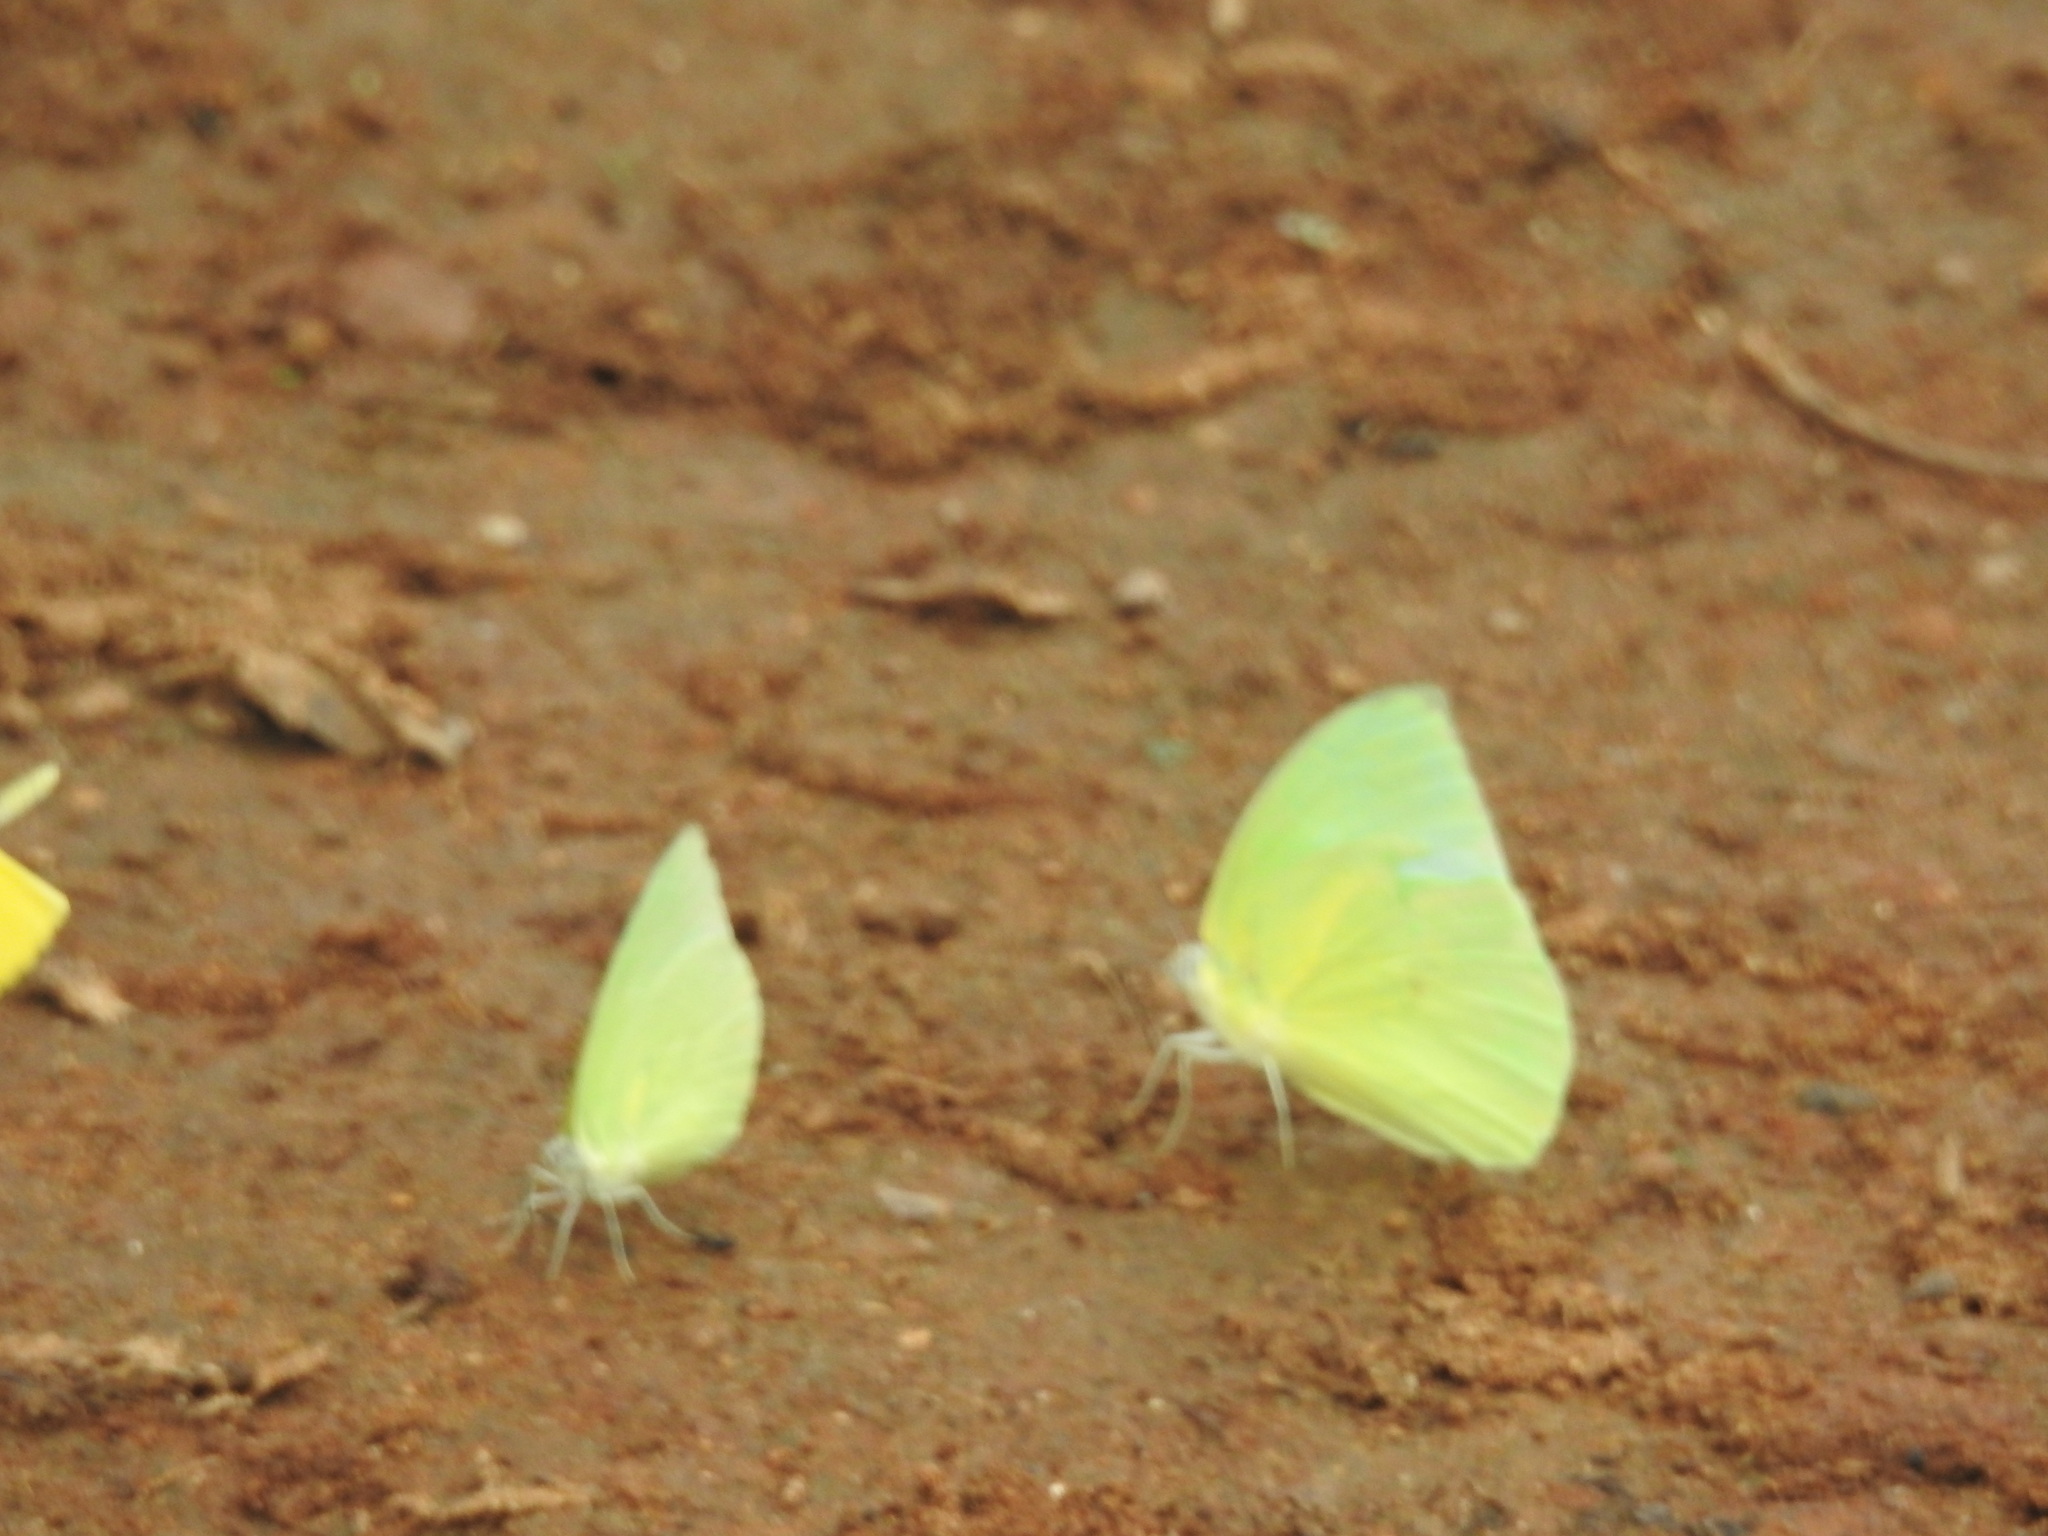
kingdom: Animalia
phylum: Arthropoda
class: Insecta
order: Lepidoptera
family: Pieridae
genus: Catopsilia
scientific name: Catopsilia pomona
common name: Common emigrant
